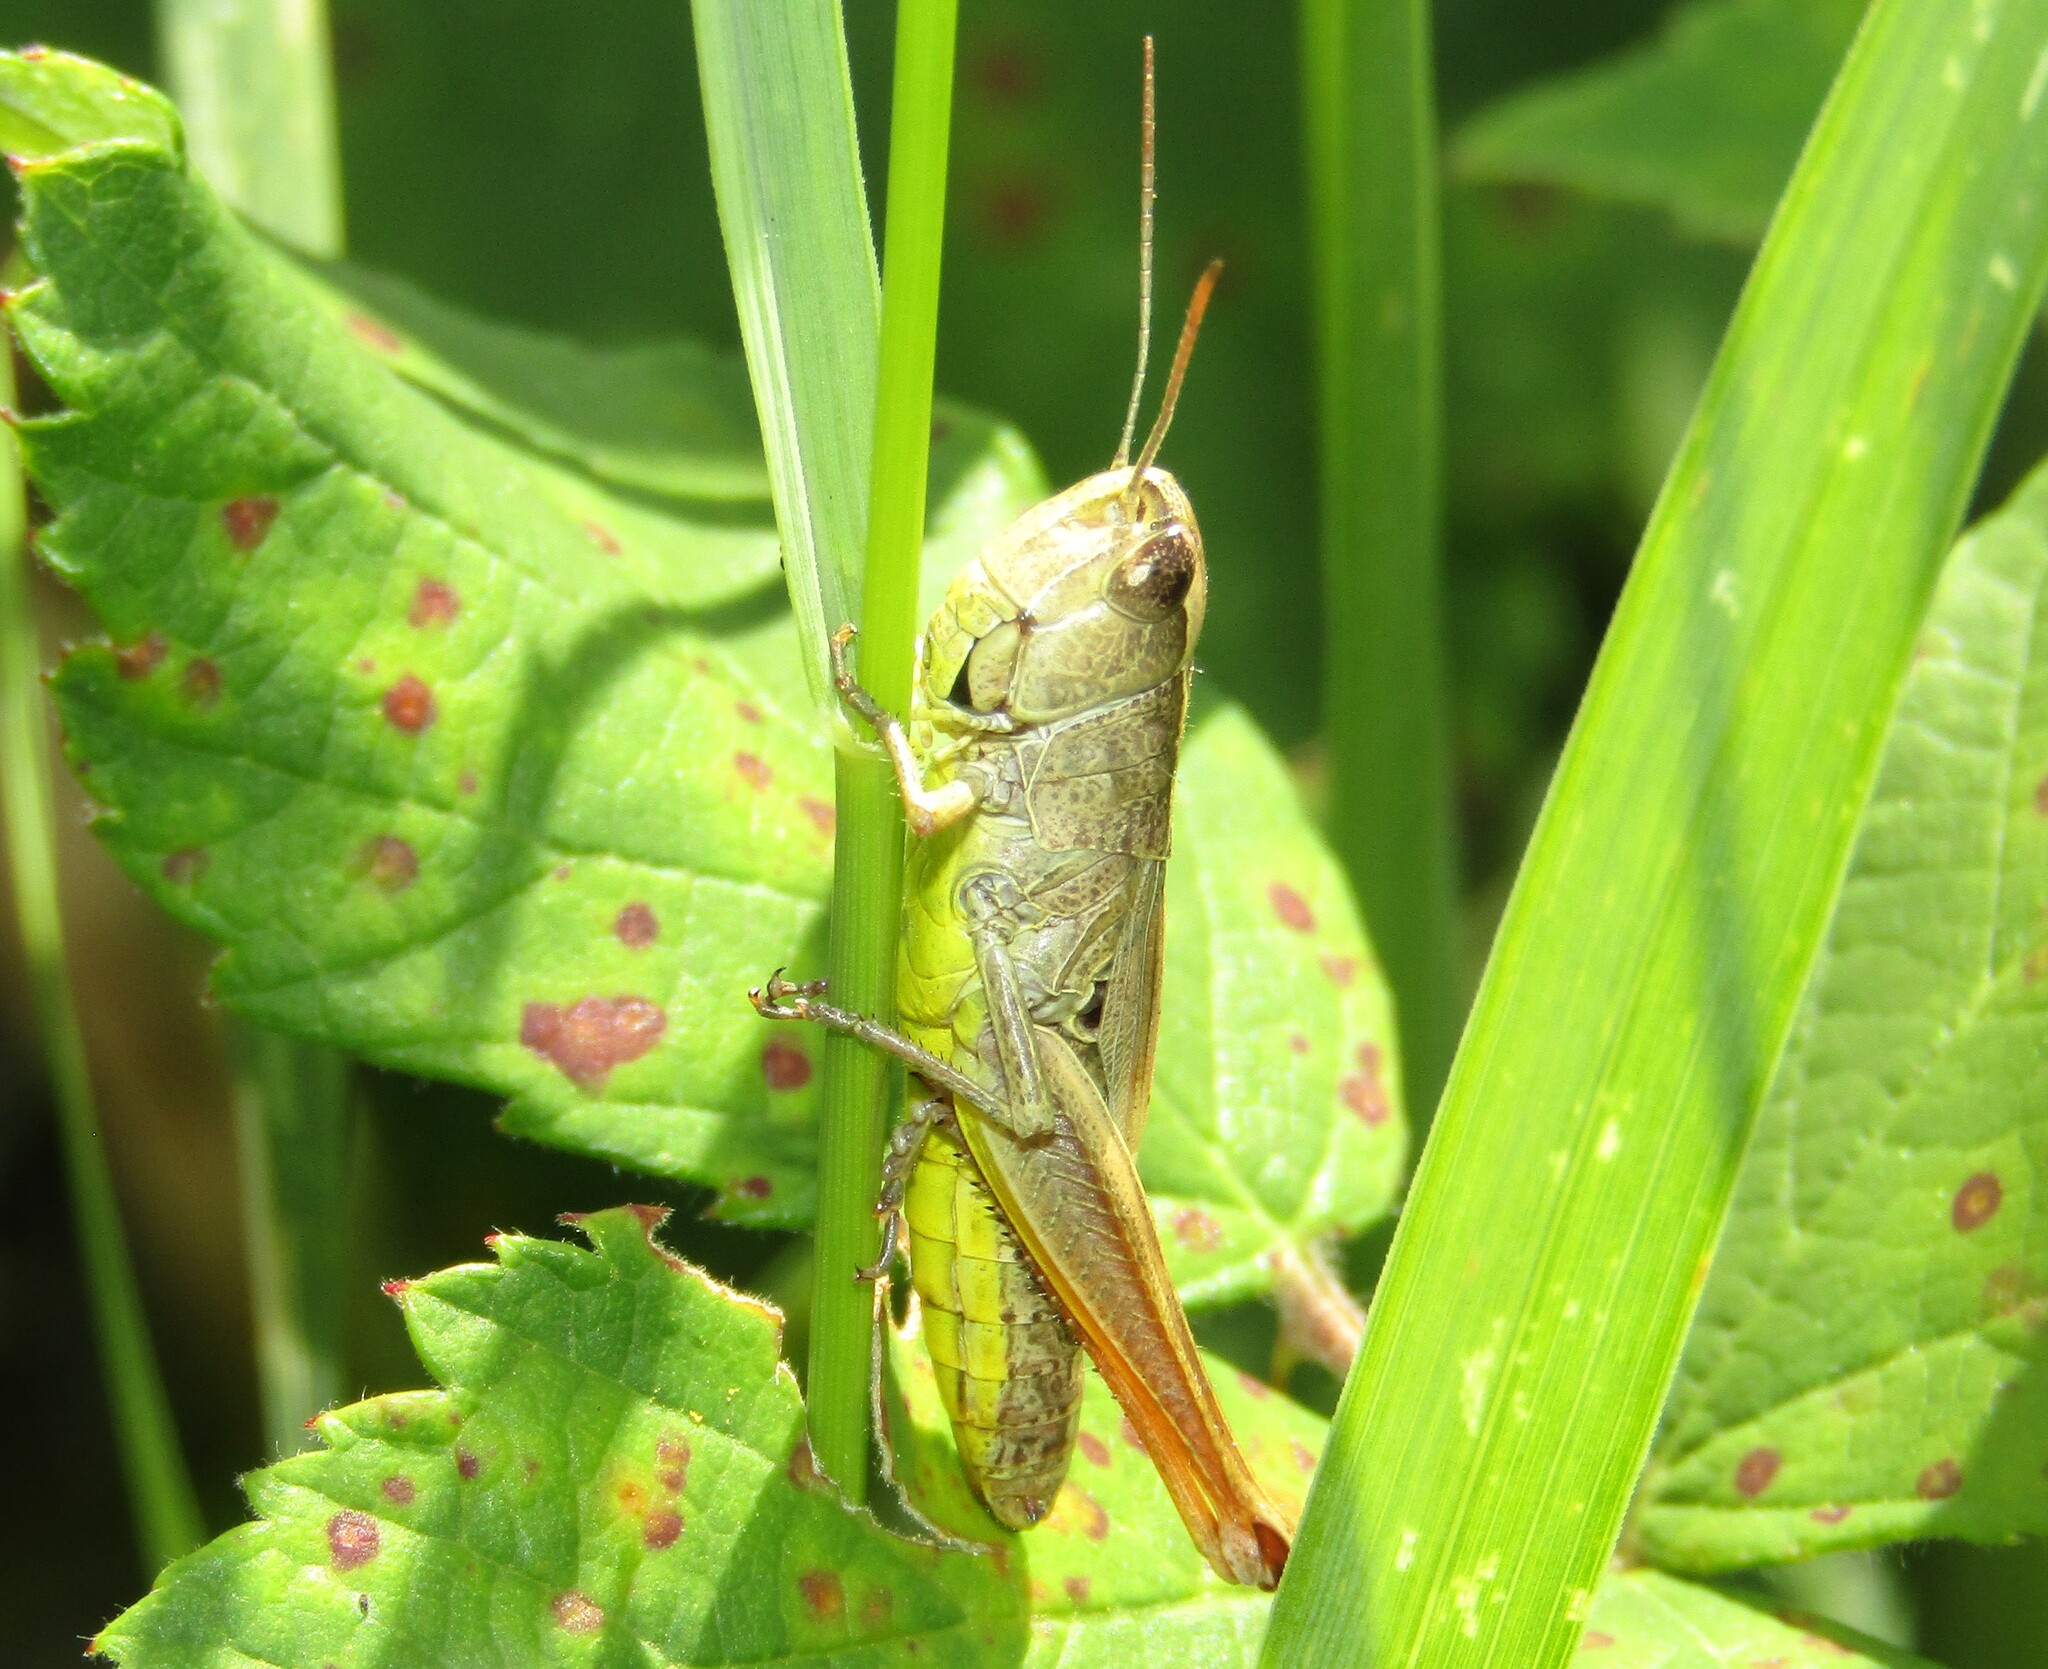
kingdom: Animalia
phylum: Arthropoda
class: Insecta
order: Orthoptera
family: Acrididae
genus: Pseudochorthippus
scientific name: Pseudochorthippus parallelus
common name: Meadow grasshopper
